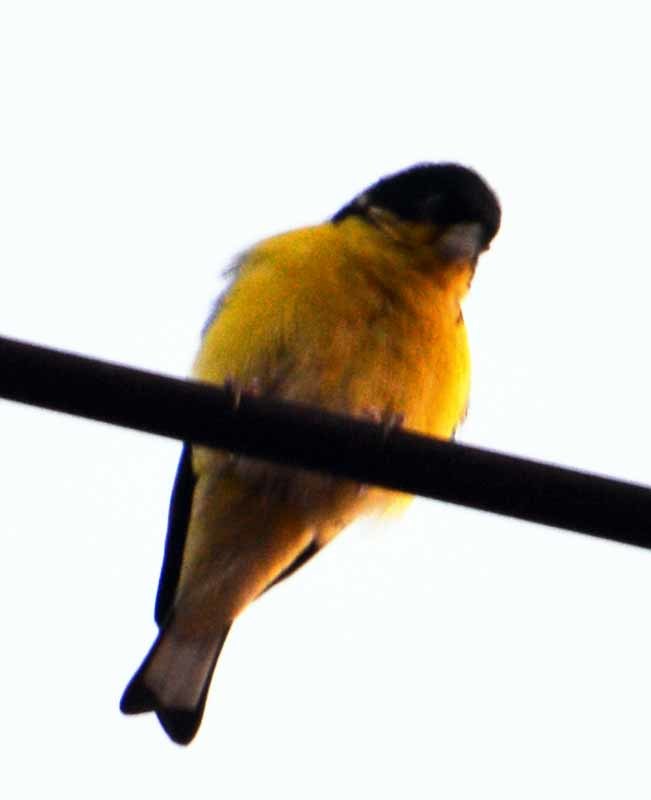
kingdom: Animalia
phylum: Chordata
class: Aves
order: Passeriformes
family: Fringillidae
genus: Spinus
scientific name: Spinus psaltria
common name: Lesser goldfinch
